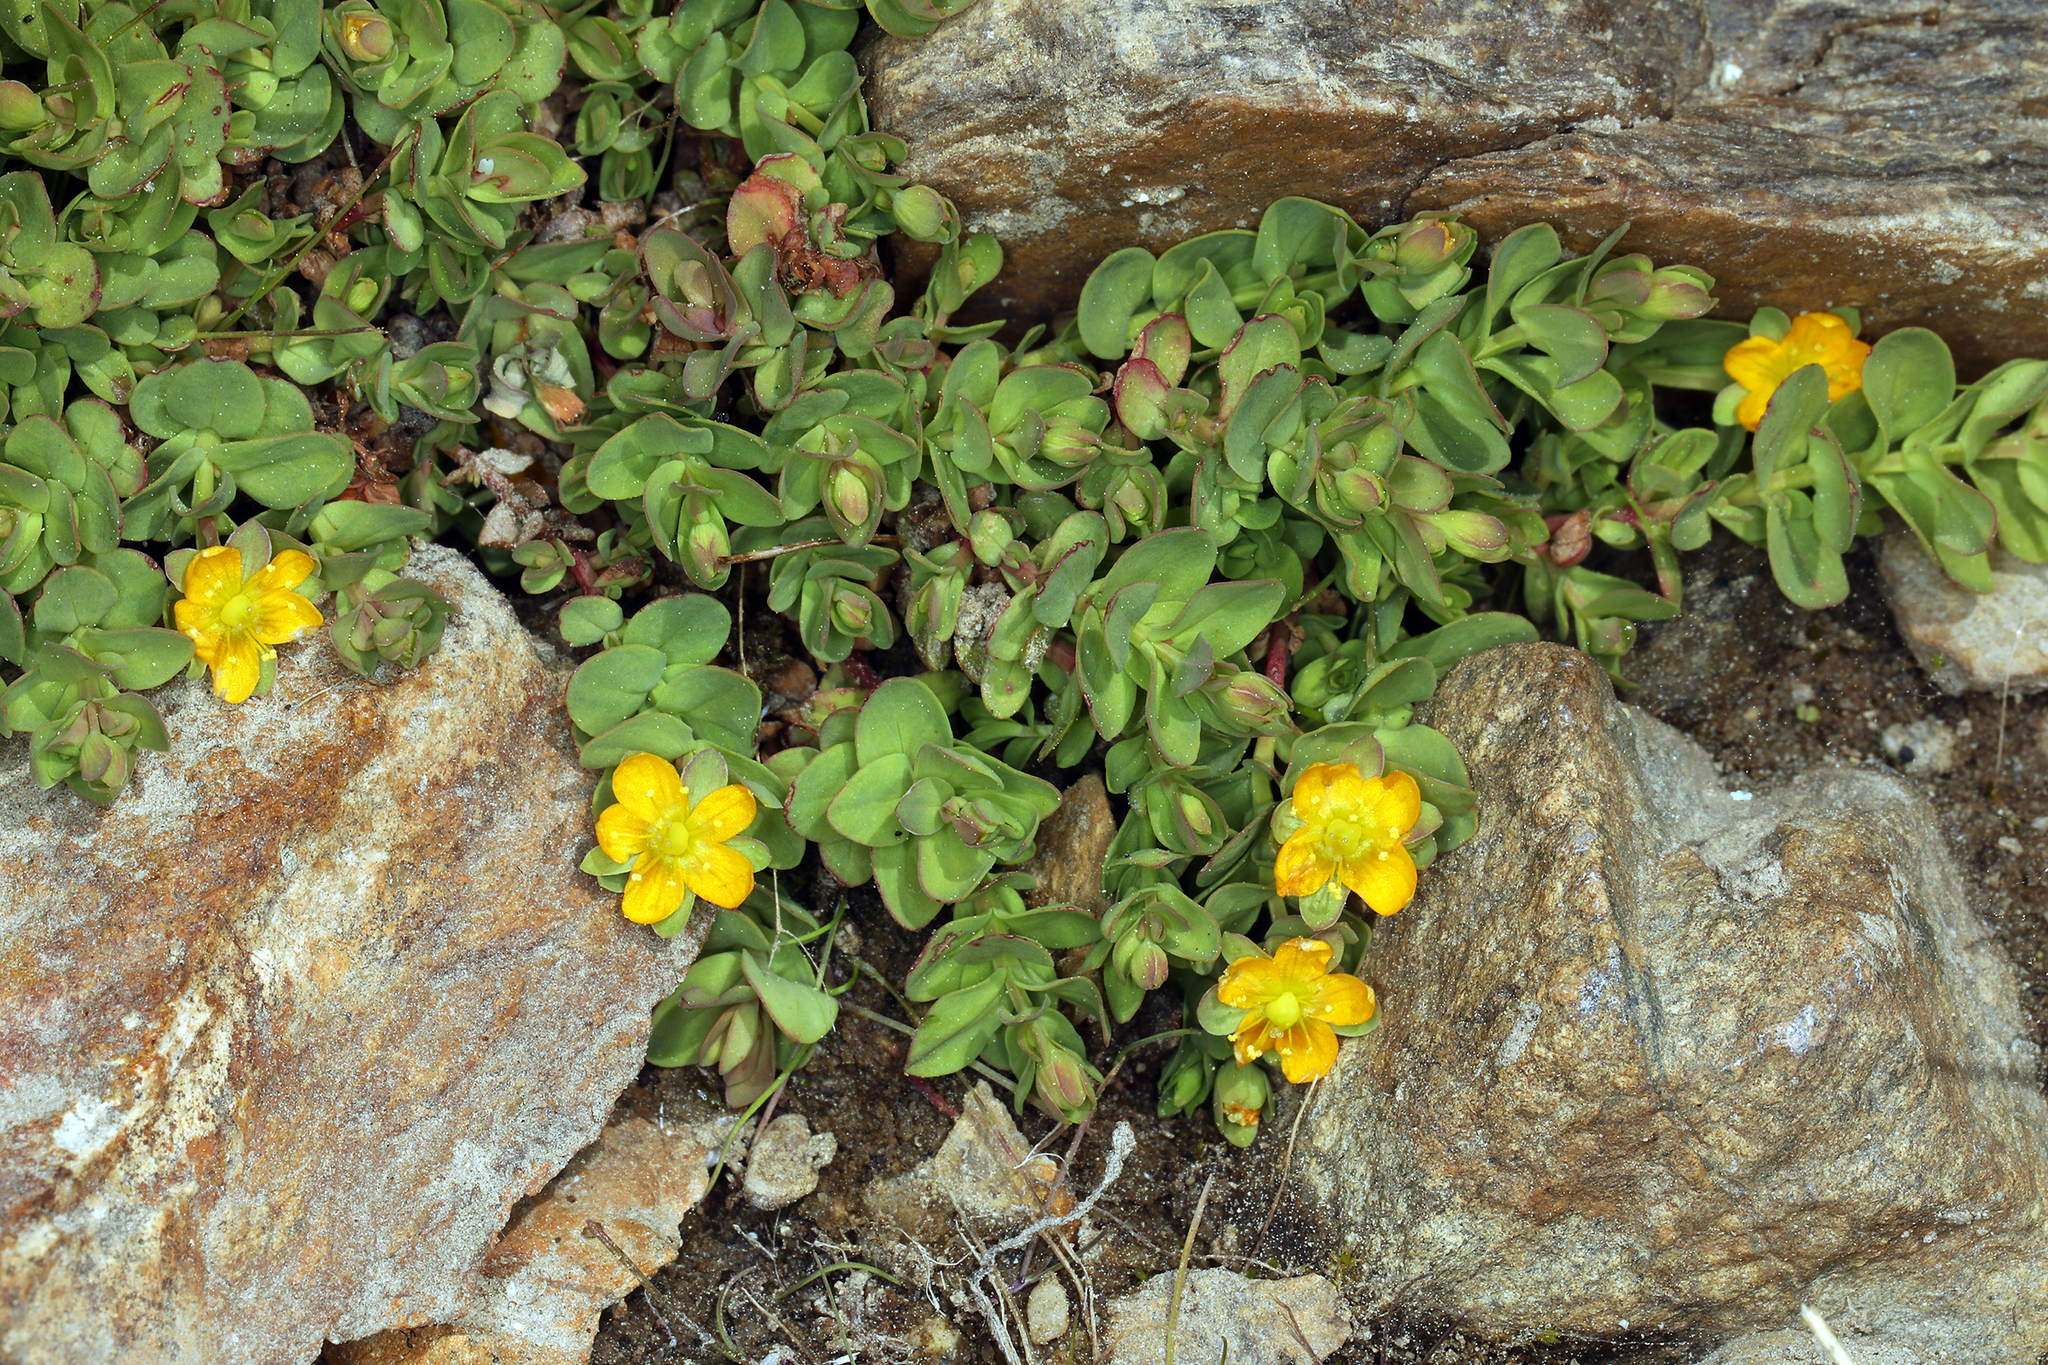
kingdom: Plantae
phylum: Tracheophyta
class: Magnoliopsida
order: Malpighiales
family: Hypericaceae
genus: Hypericum
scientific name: Hypericum anagalloides
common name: Bog st. john's-wort
